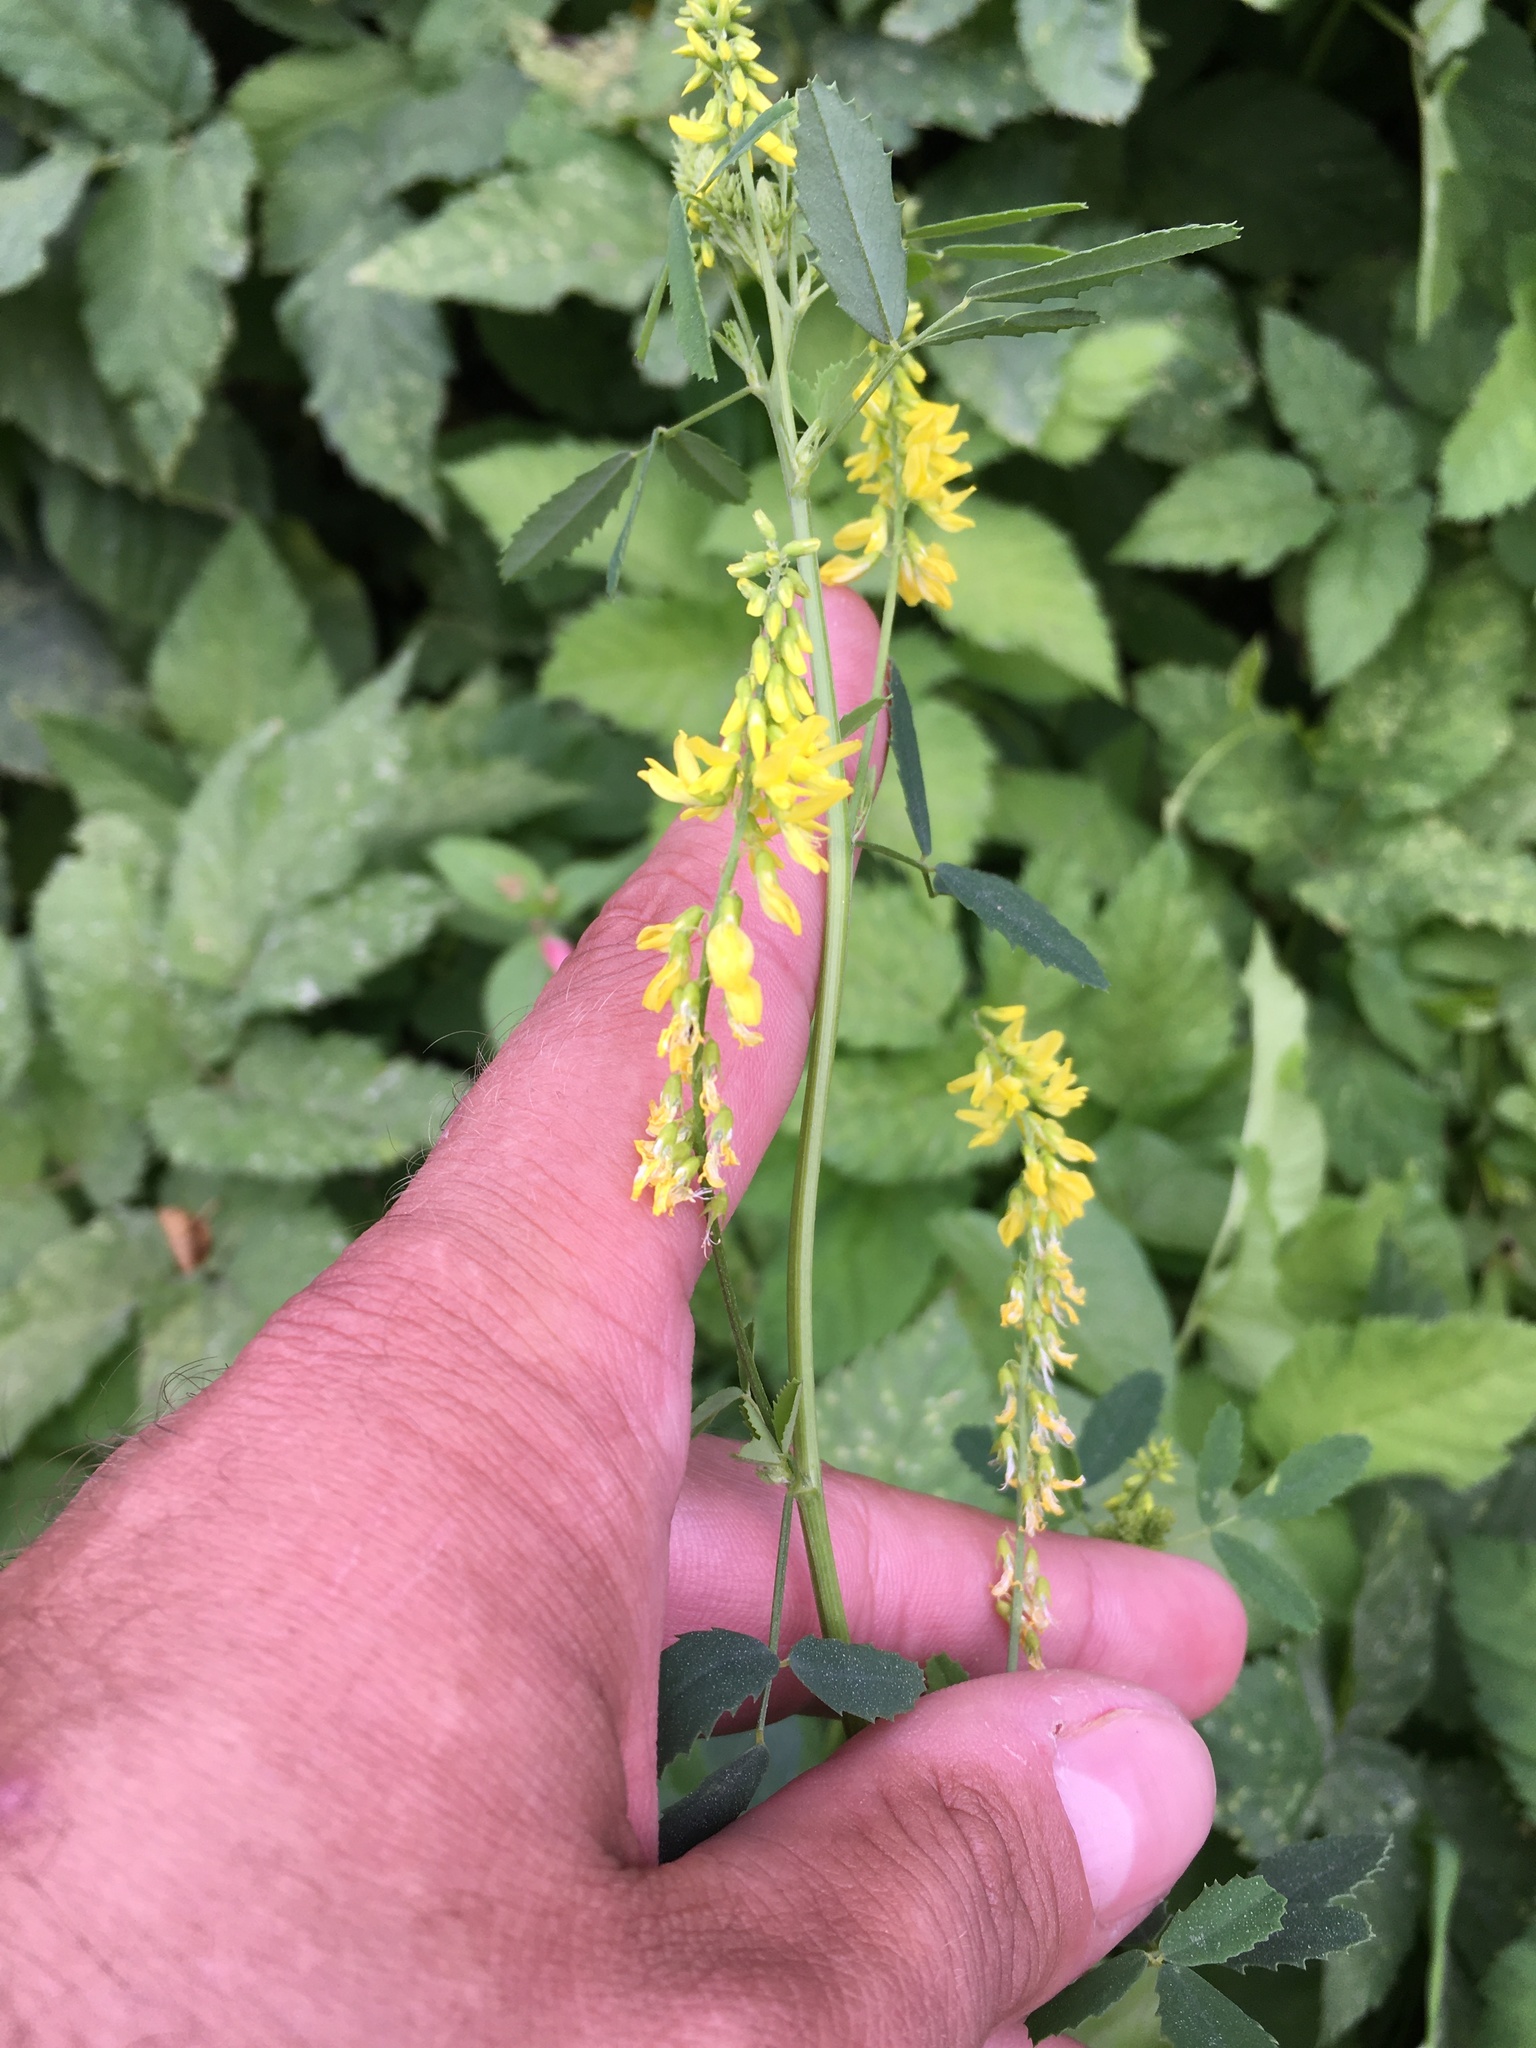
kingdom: Plantae
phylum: Tracheophyta
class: Magnoliopsida
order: Fabales
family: Fabaceae
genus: Melilotus
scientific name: Melilotus officinalis
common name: Sweetclover
